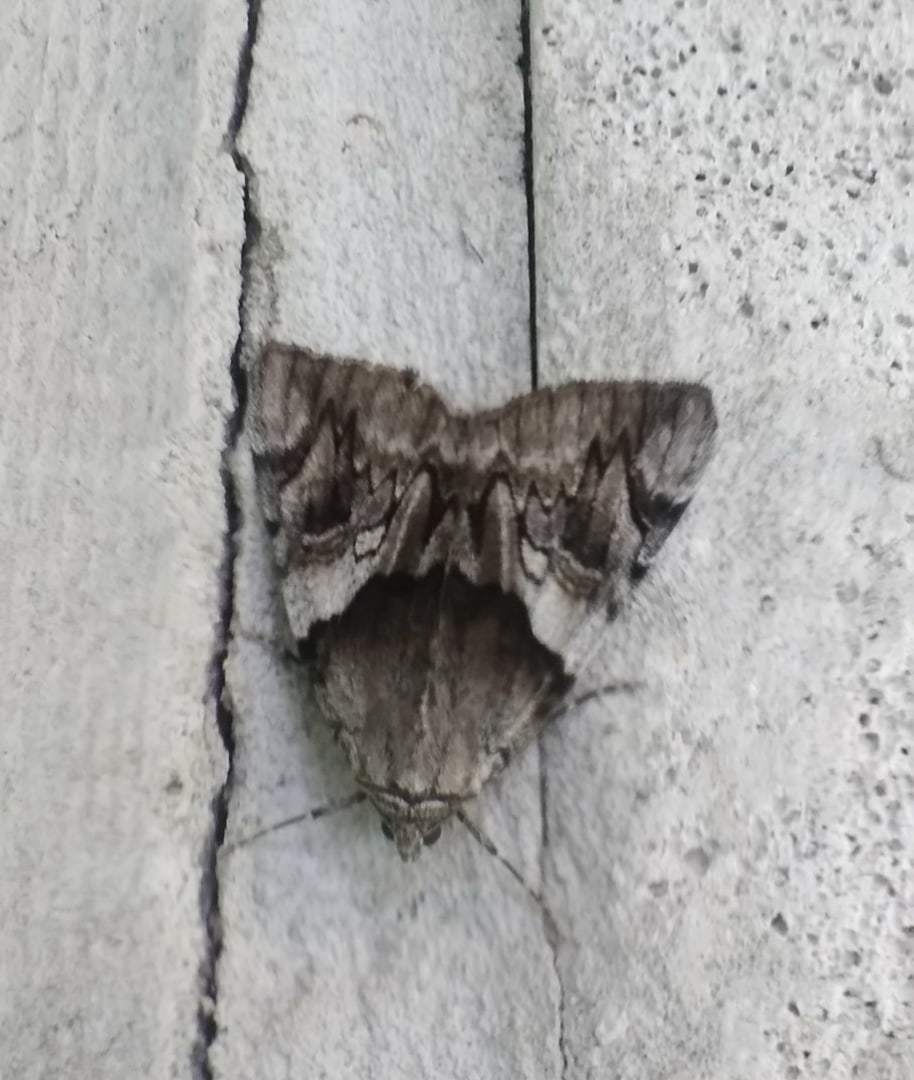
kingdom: Animalia
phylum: Arthropoda
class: Insecta
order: Lepidoptera
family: Erebidae
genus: Catocala
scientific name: Catocala fulminea
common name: Yellow bands underwing
